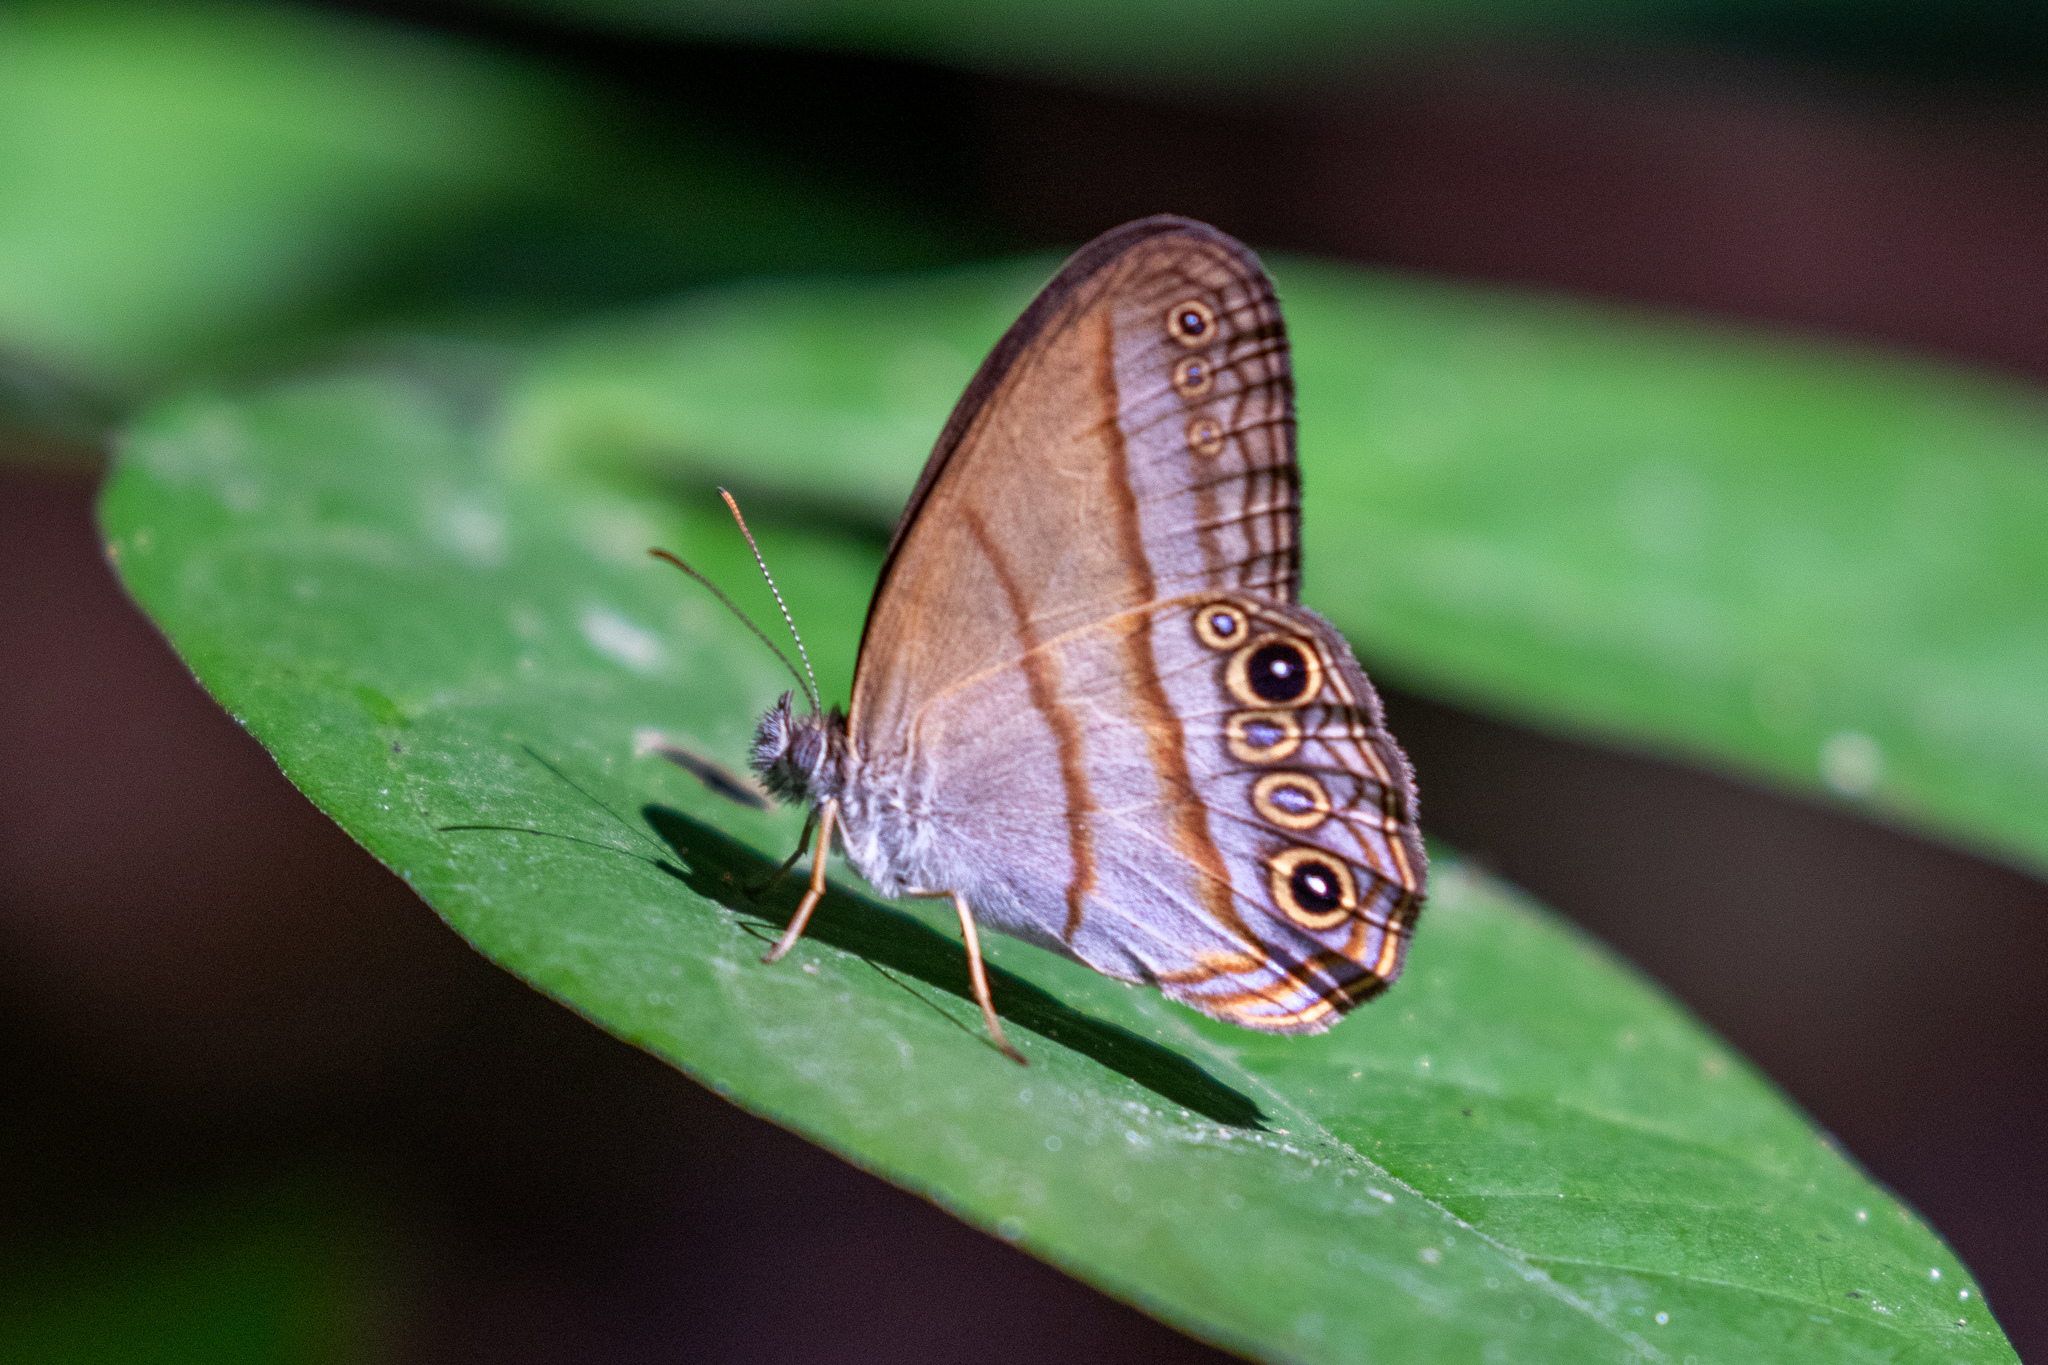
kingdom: Animalia
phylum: Arthropoda
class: Insecta
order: Lepidoptera
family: Nymphalidae
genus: Amiga
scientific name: Amiga arnaca
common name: Blue-topped satyr
